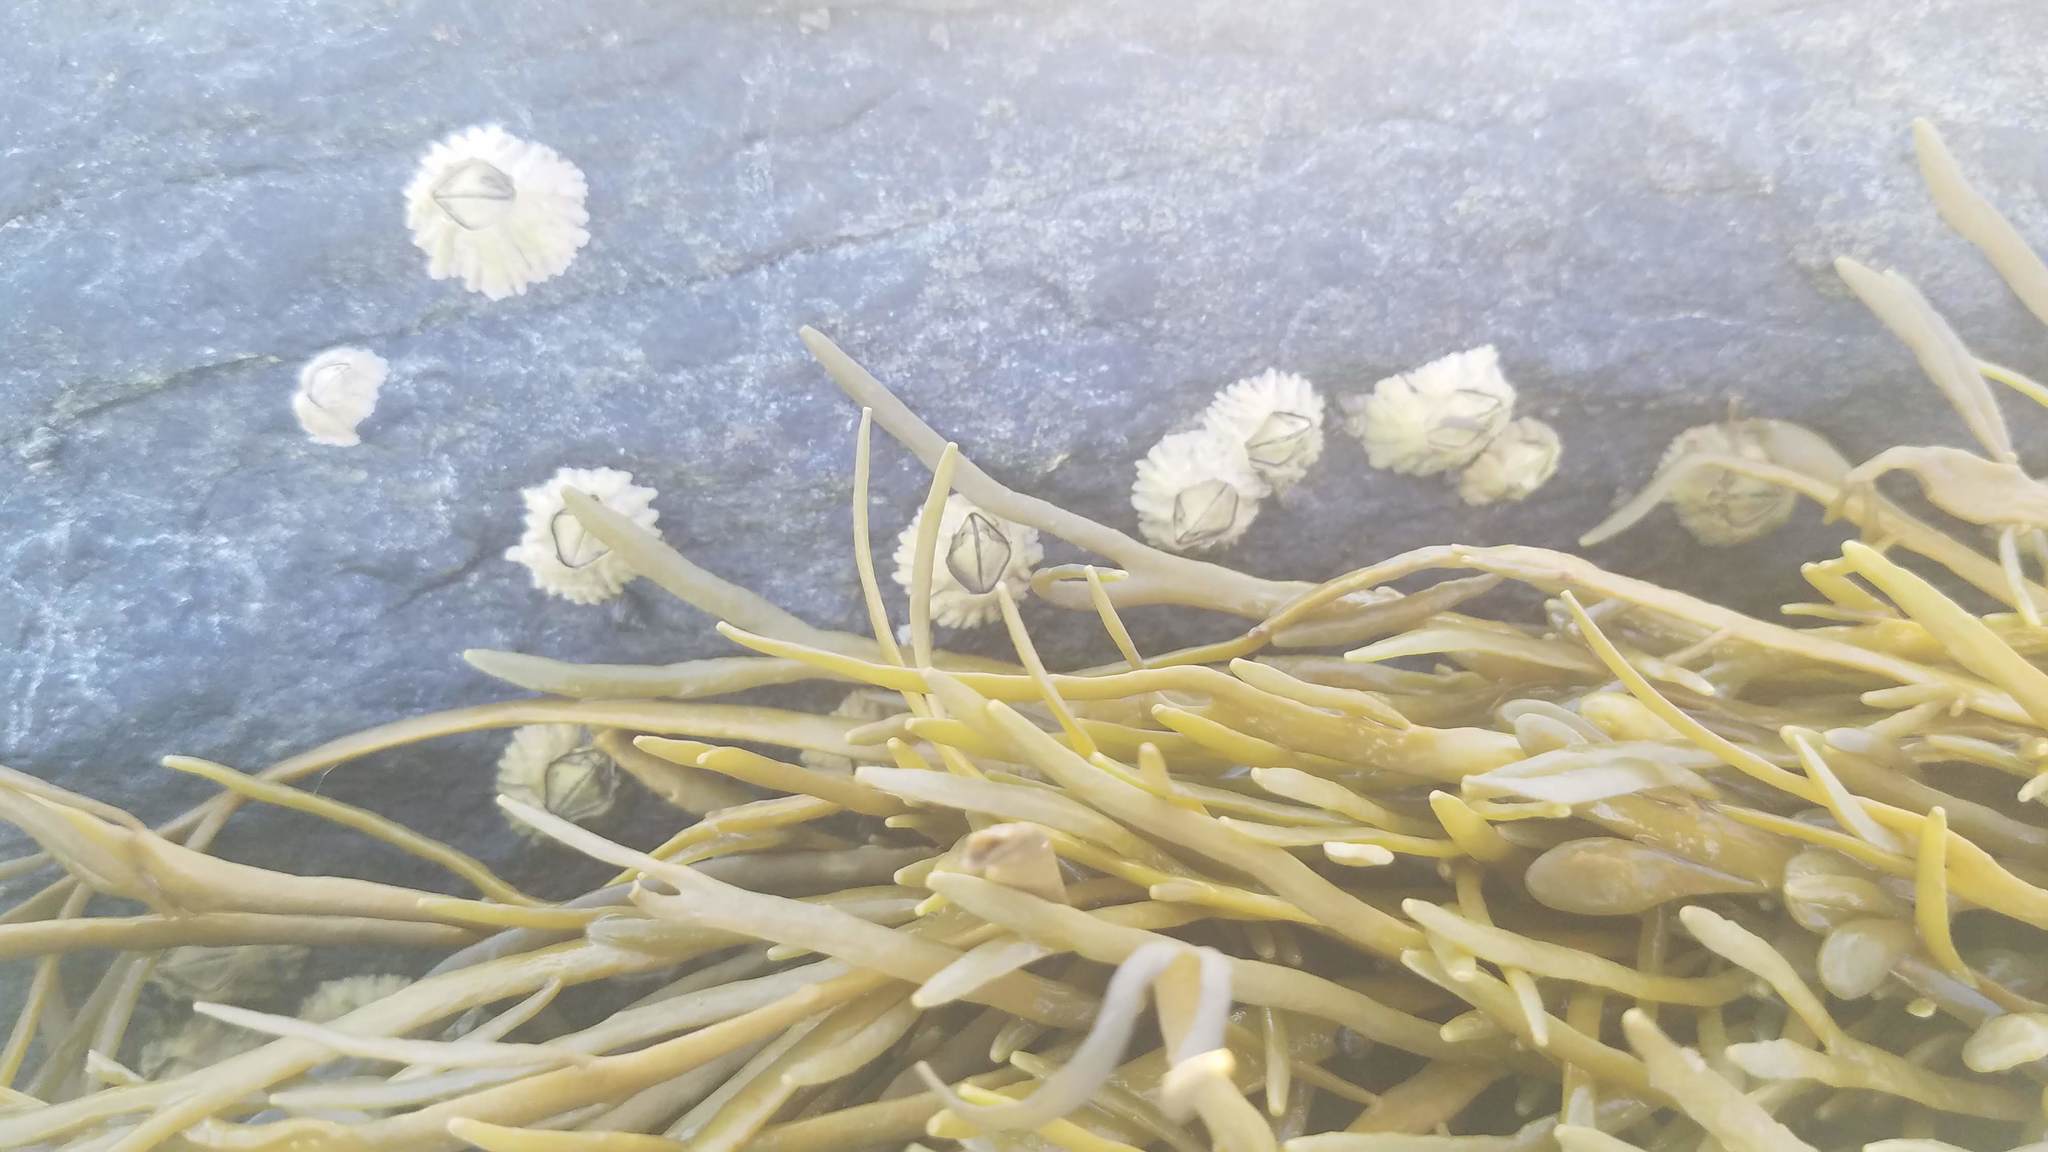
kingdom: Animalia
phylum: Arthropoda
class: Maxillopoda
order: Sessilia
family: Archaeobalanidae
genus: Semibalanus
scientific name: Semibalanus balanoides
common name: Acorn barnacle
